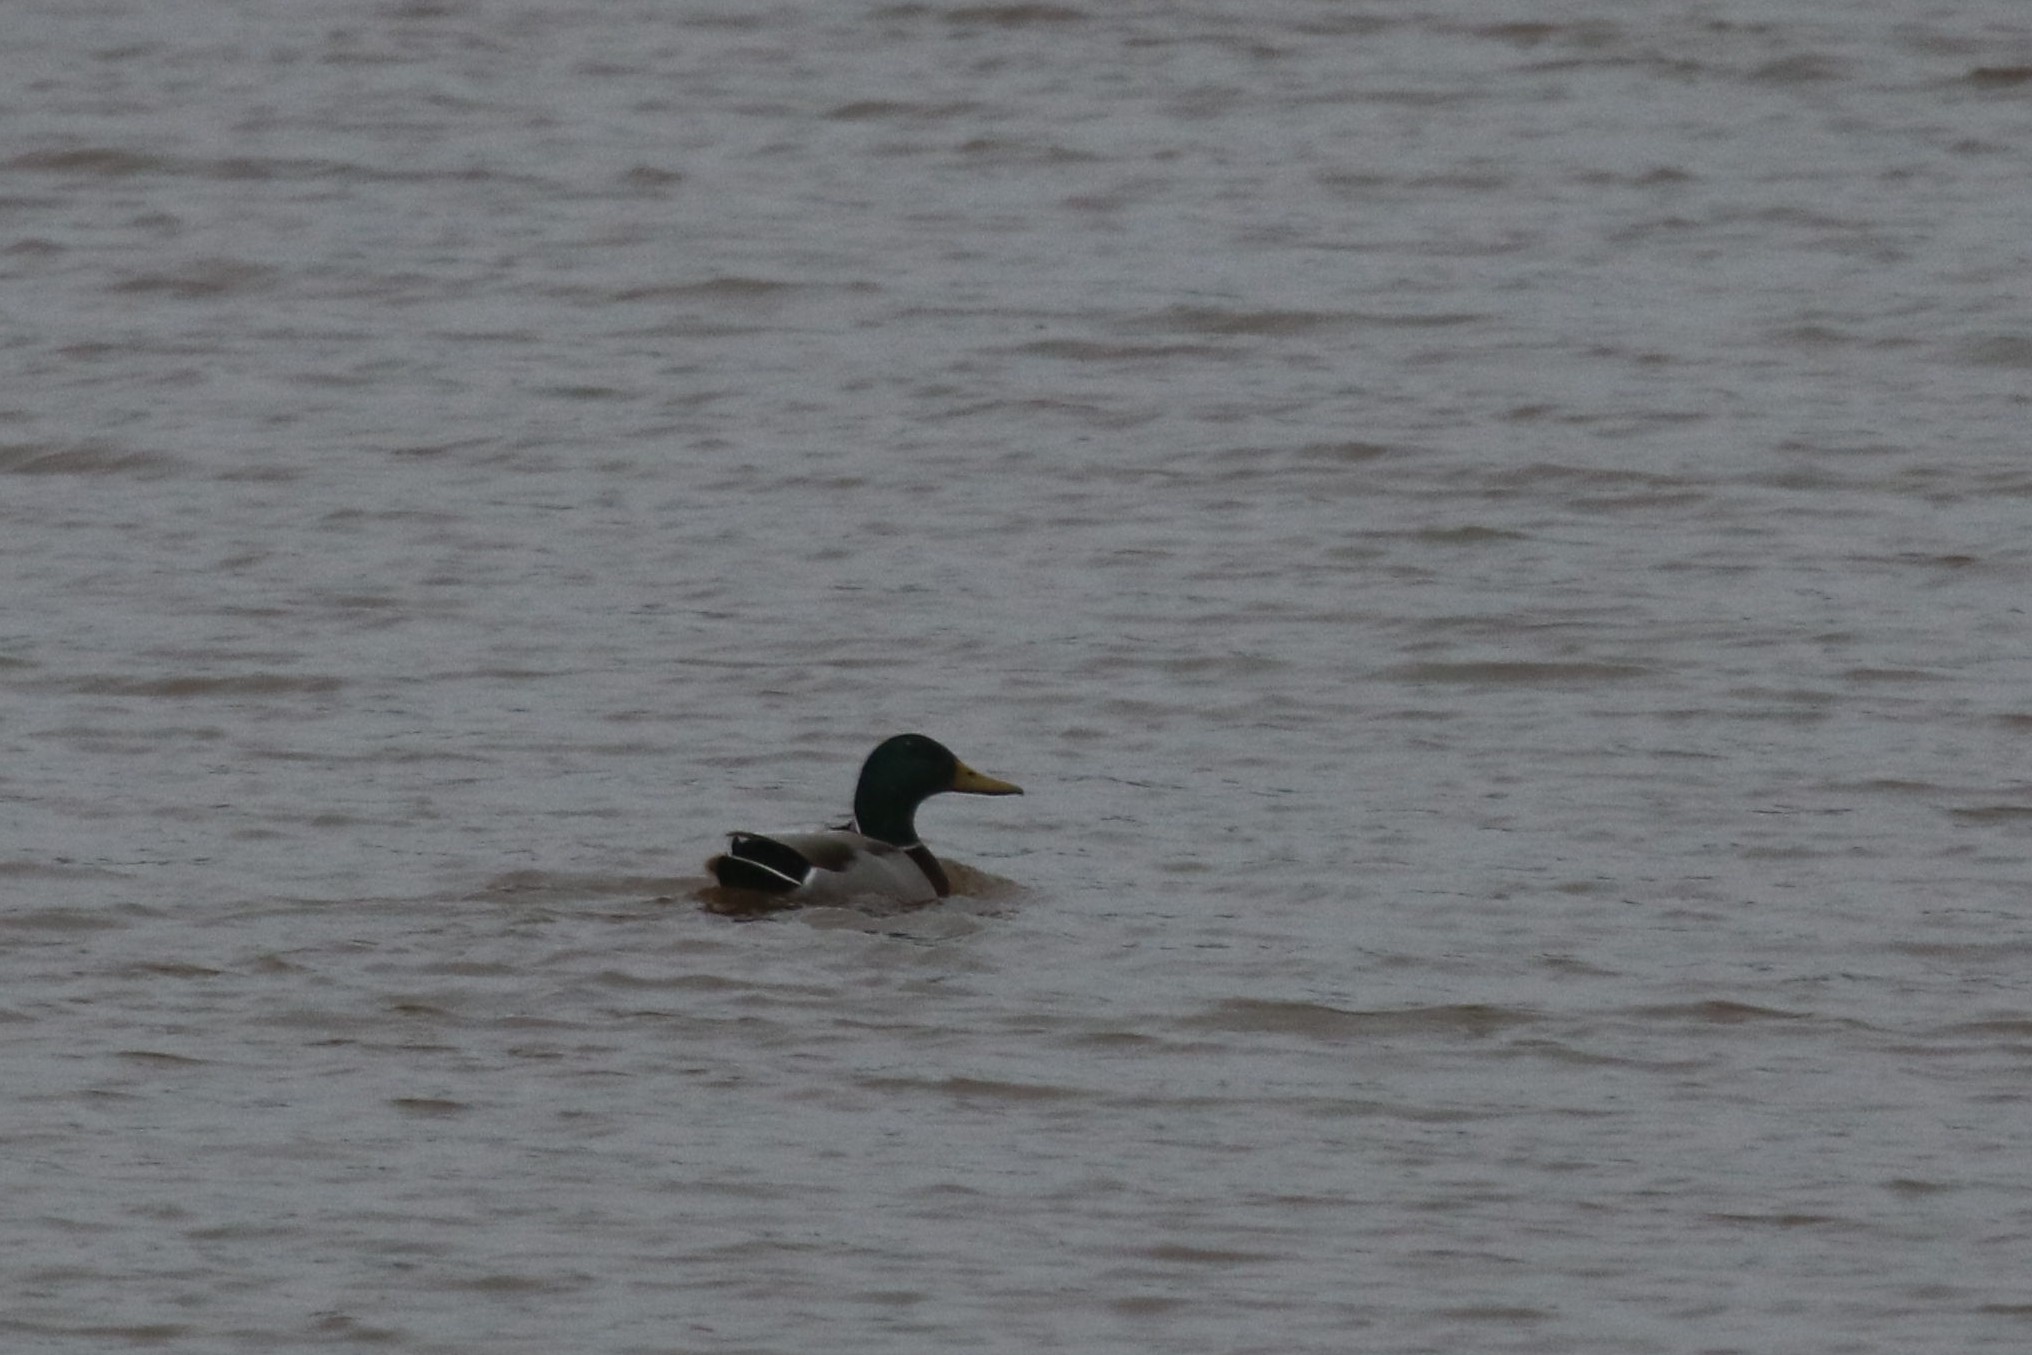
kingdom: Animalia
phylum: Chordata
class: Aves
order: Anseriformes
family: Anatidae
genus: Anas
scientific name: Anas platyrhynchos
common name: Mallard
